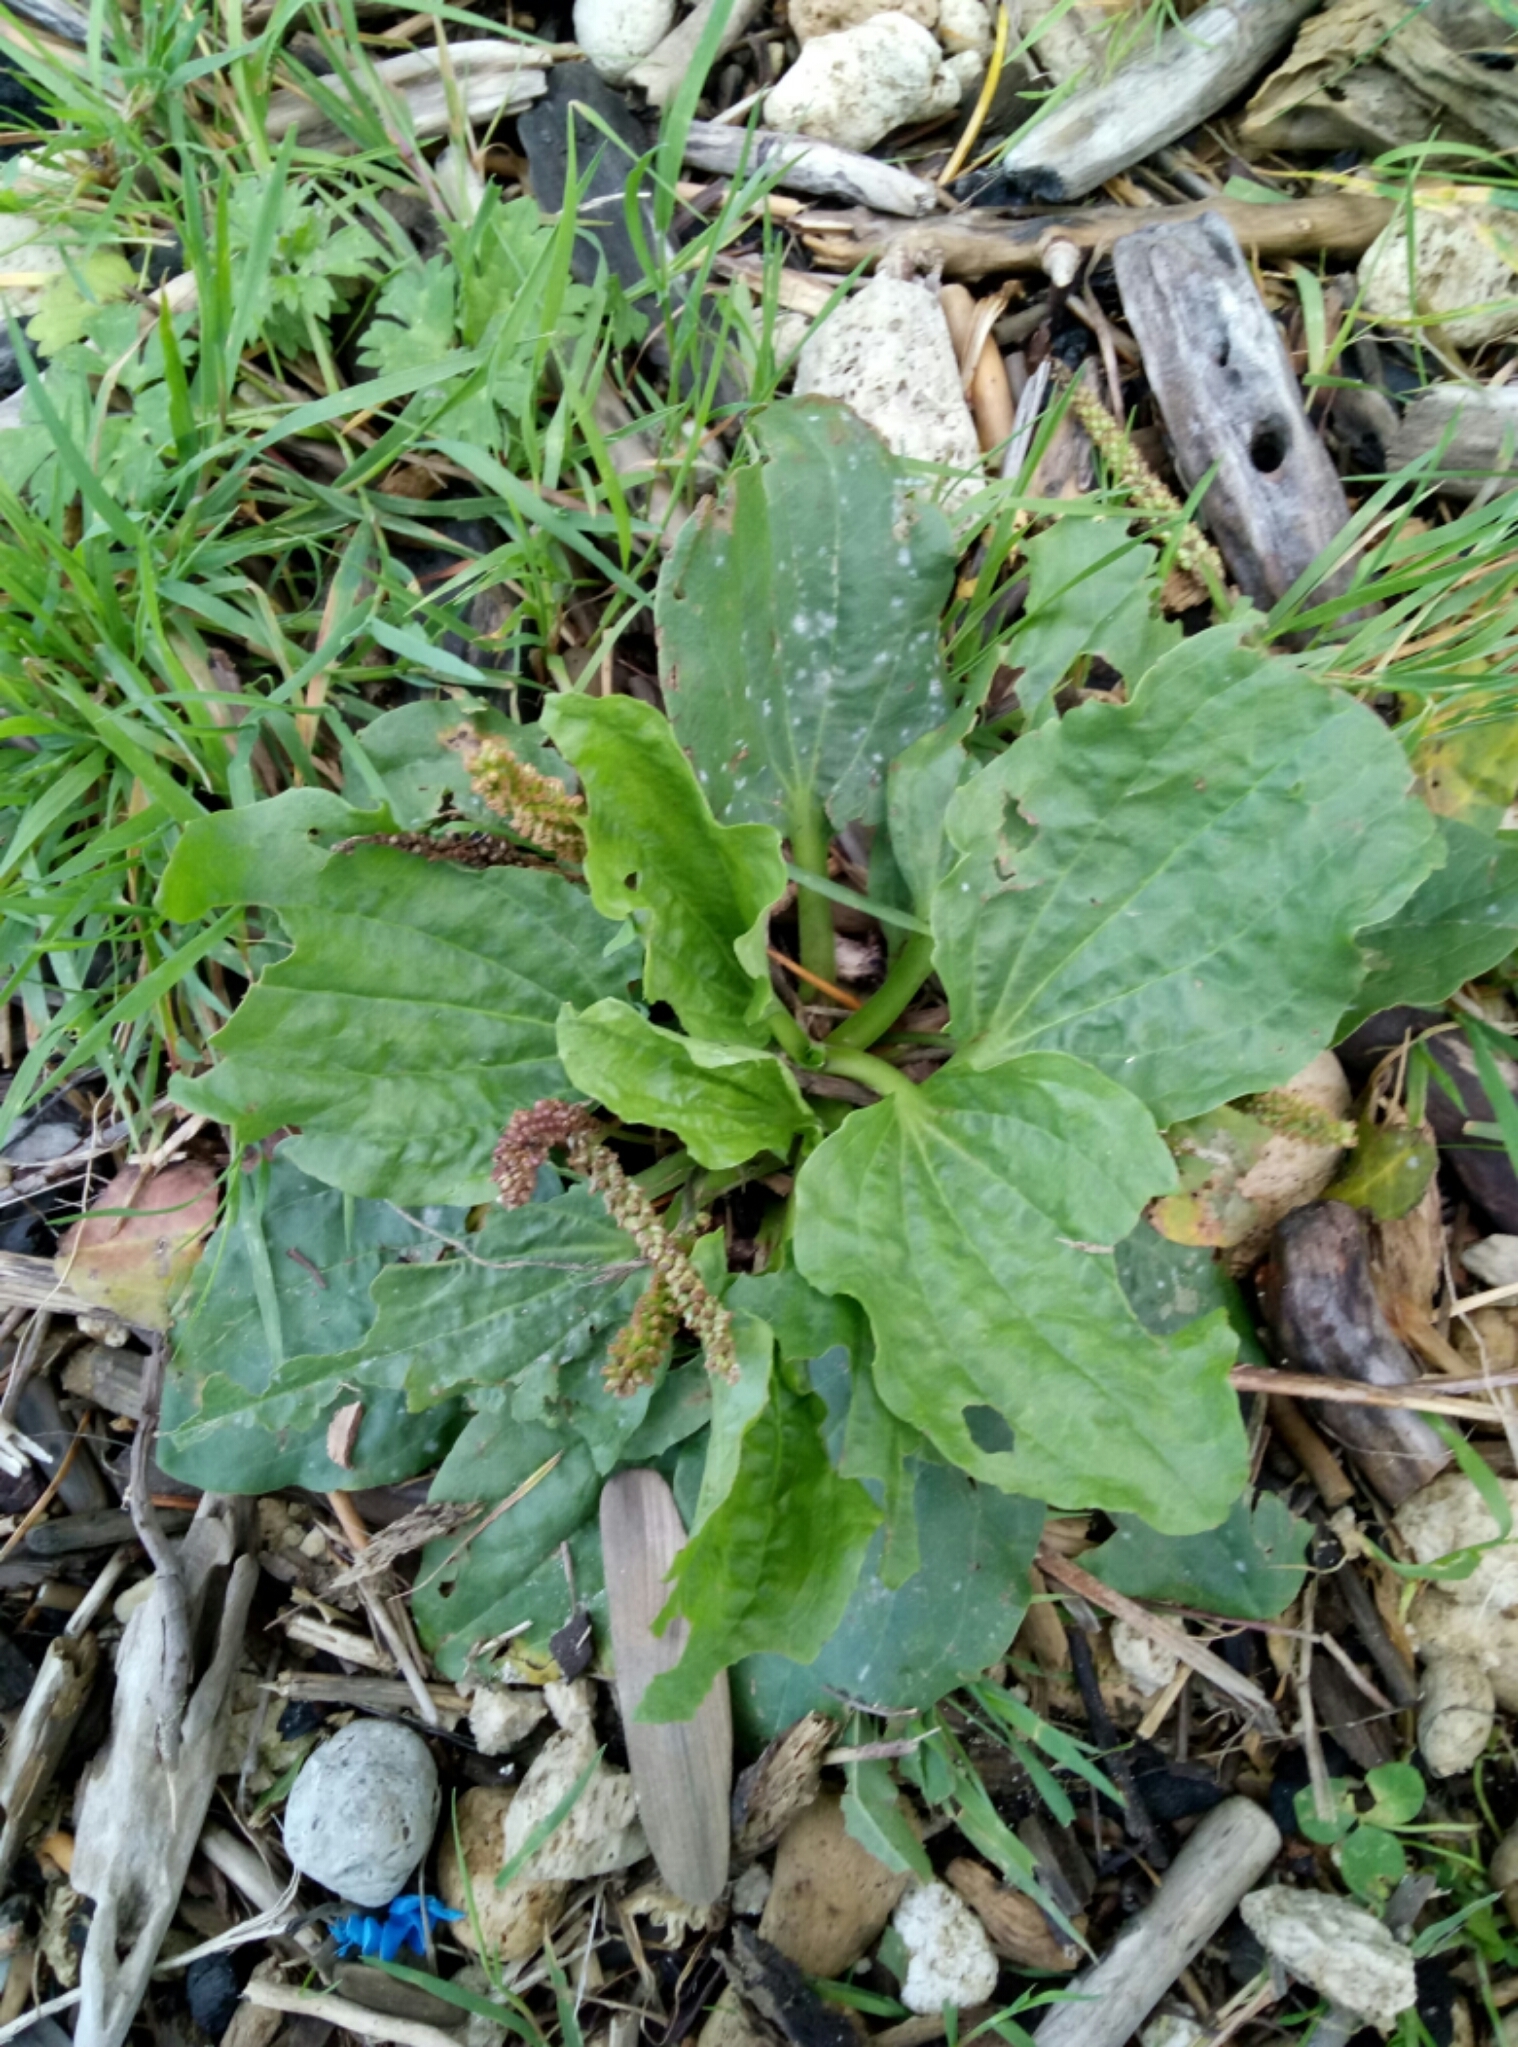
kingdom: Plantae
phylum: Tracheophyta
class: Magnoliopsida
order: Lamiales
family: Plantaginaceae
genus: Plantago
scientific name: Plantago major
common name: Common plantain
